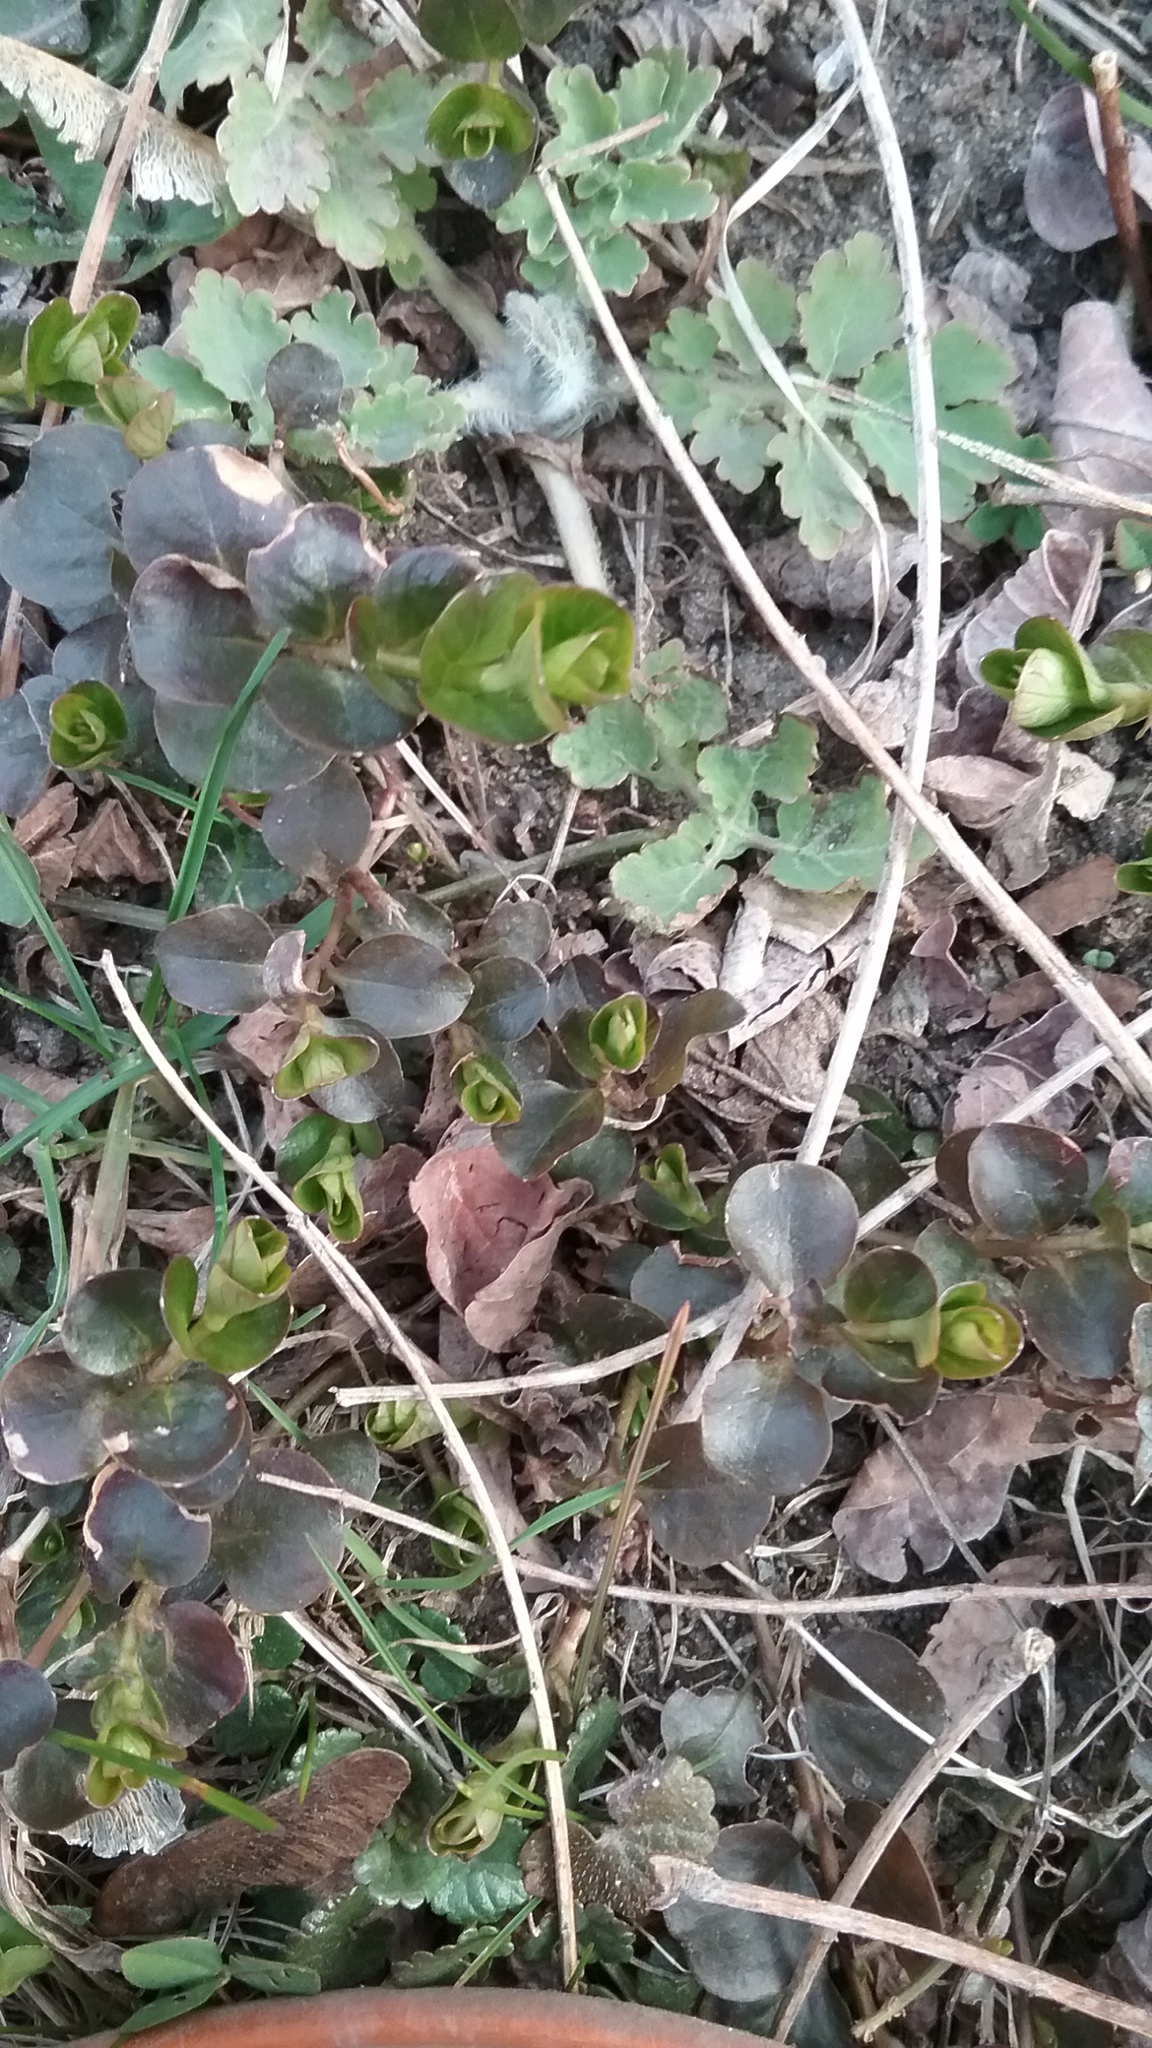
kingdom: Plantae
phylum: Tracheophyta
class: Magnoliopsida
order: Ericales
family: Primulaceae
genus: Lysimachia
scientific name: Lysimachia nummularia
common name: Moneywort
